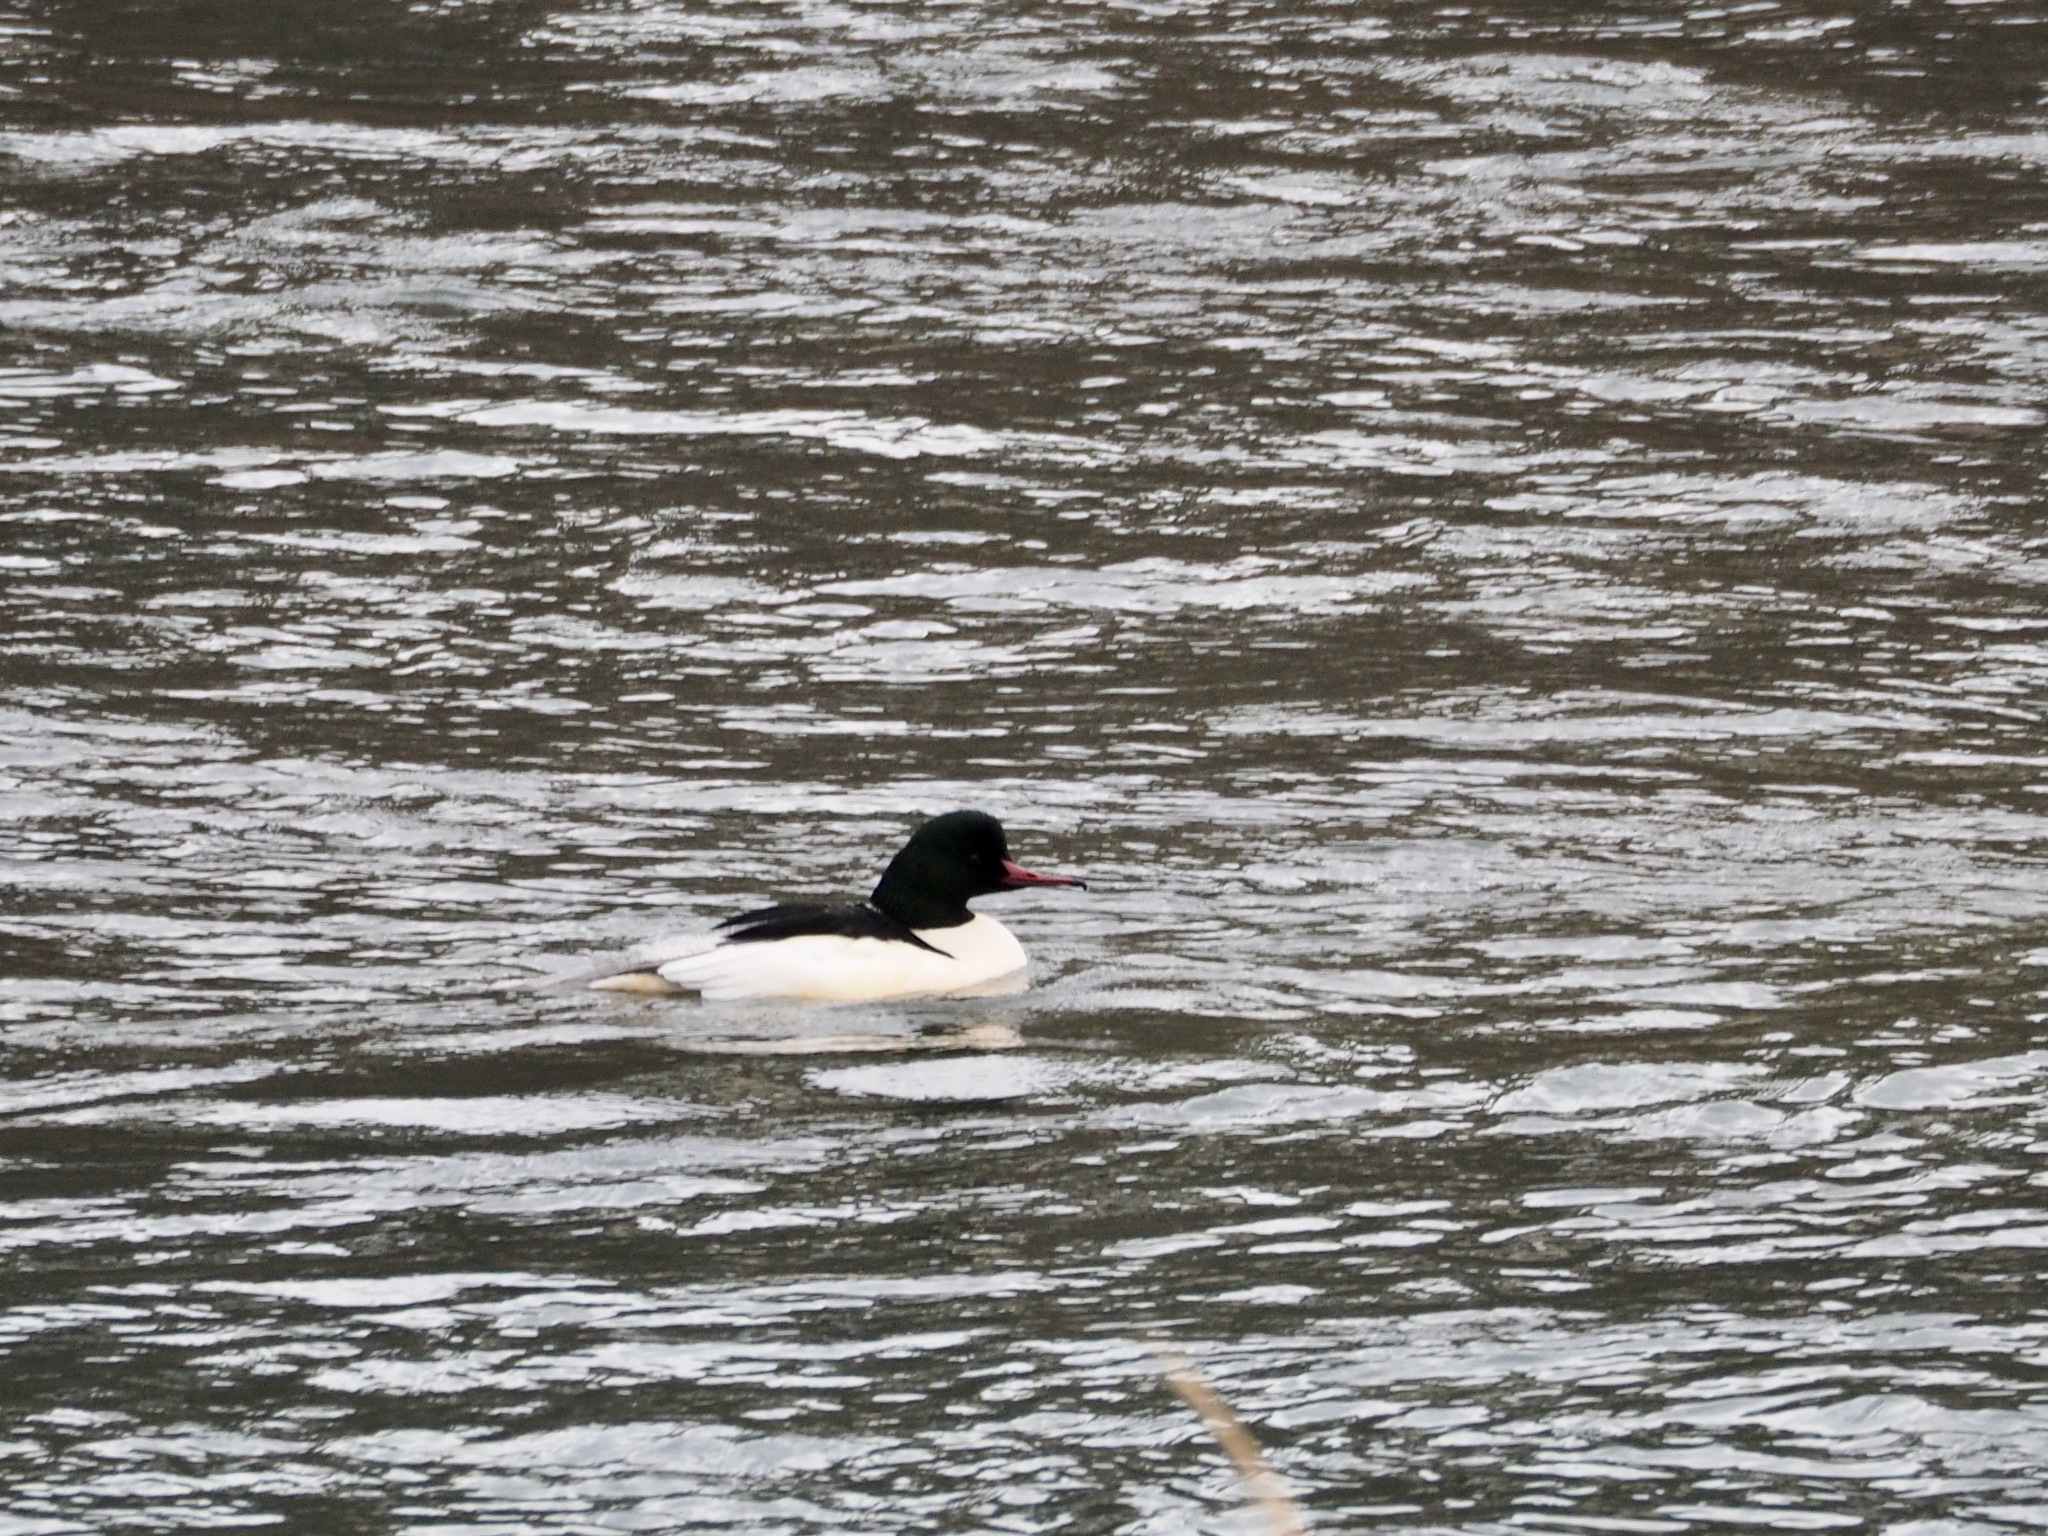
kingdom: Animalia
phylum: Chordata
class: Aves
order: Anseriformes
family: Anatidae
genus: Mergus
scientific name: Mergus merganser
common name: Common merganser
